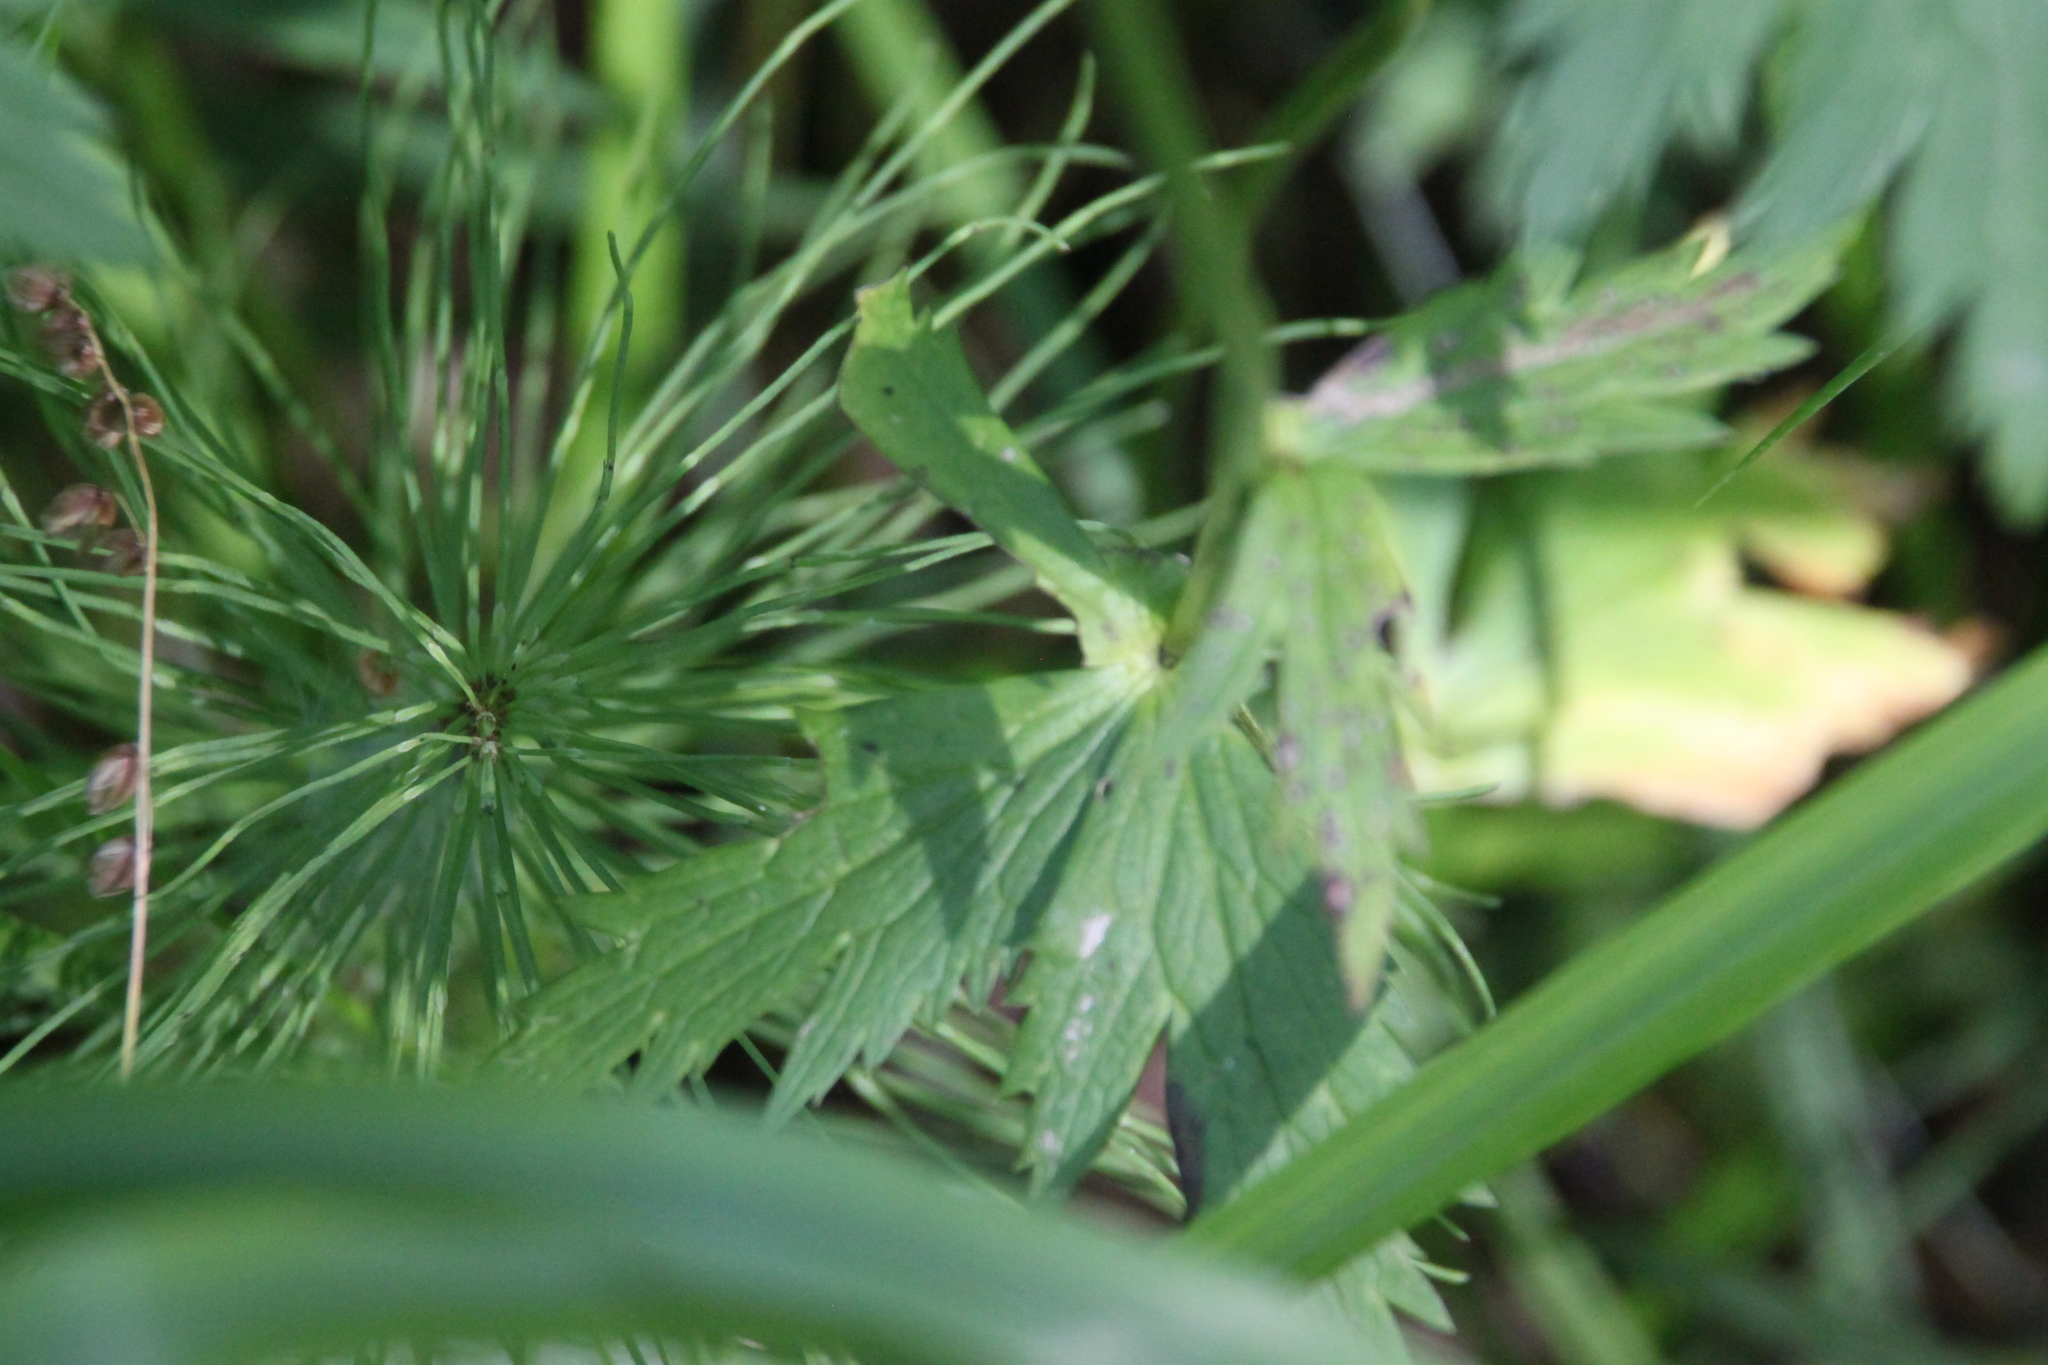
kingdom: Plantae
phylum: Tracheophyta
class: Magnoliopsida
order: Ranunculales
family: Ranunculaceae
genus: Trollius
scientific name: Trollius europaeus
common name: European globeflower
